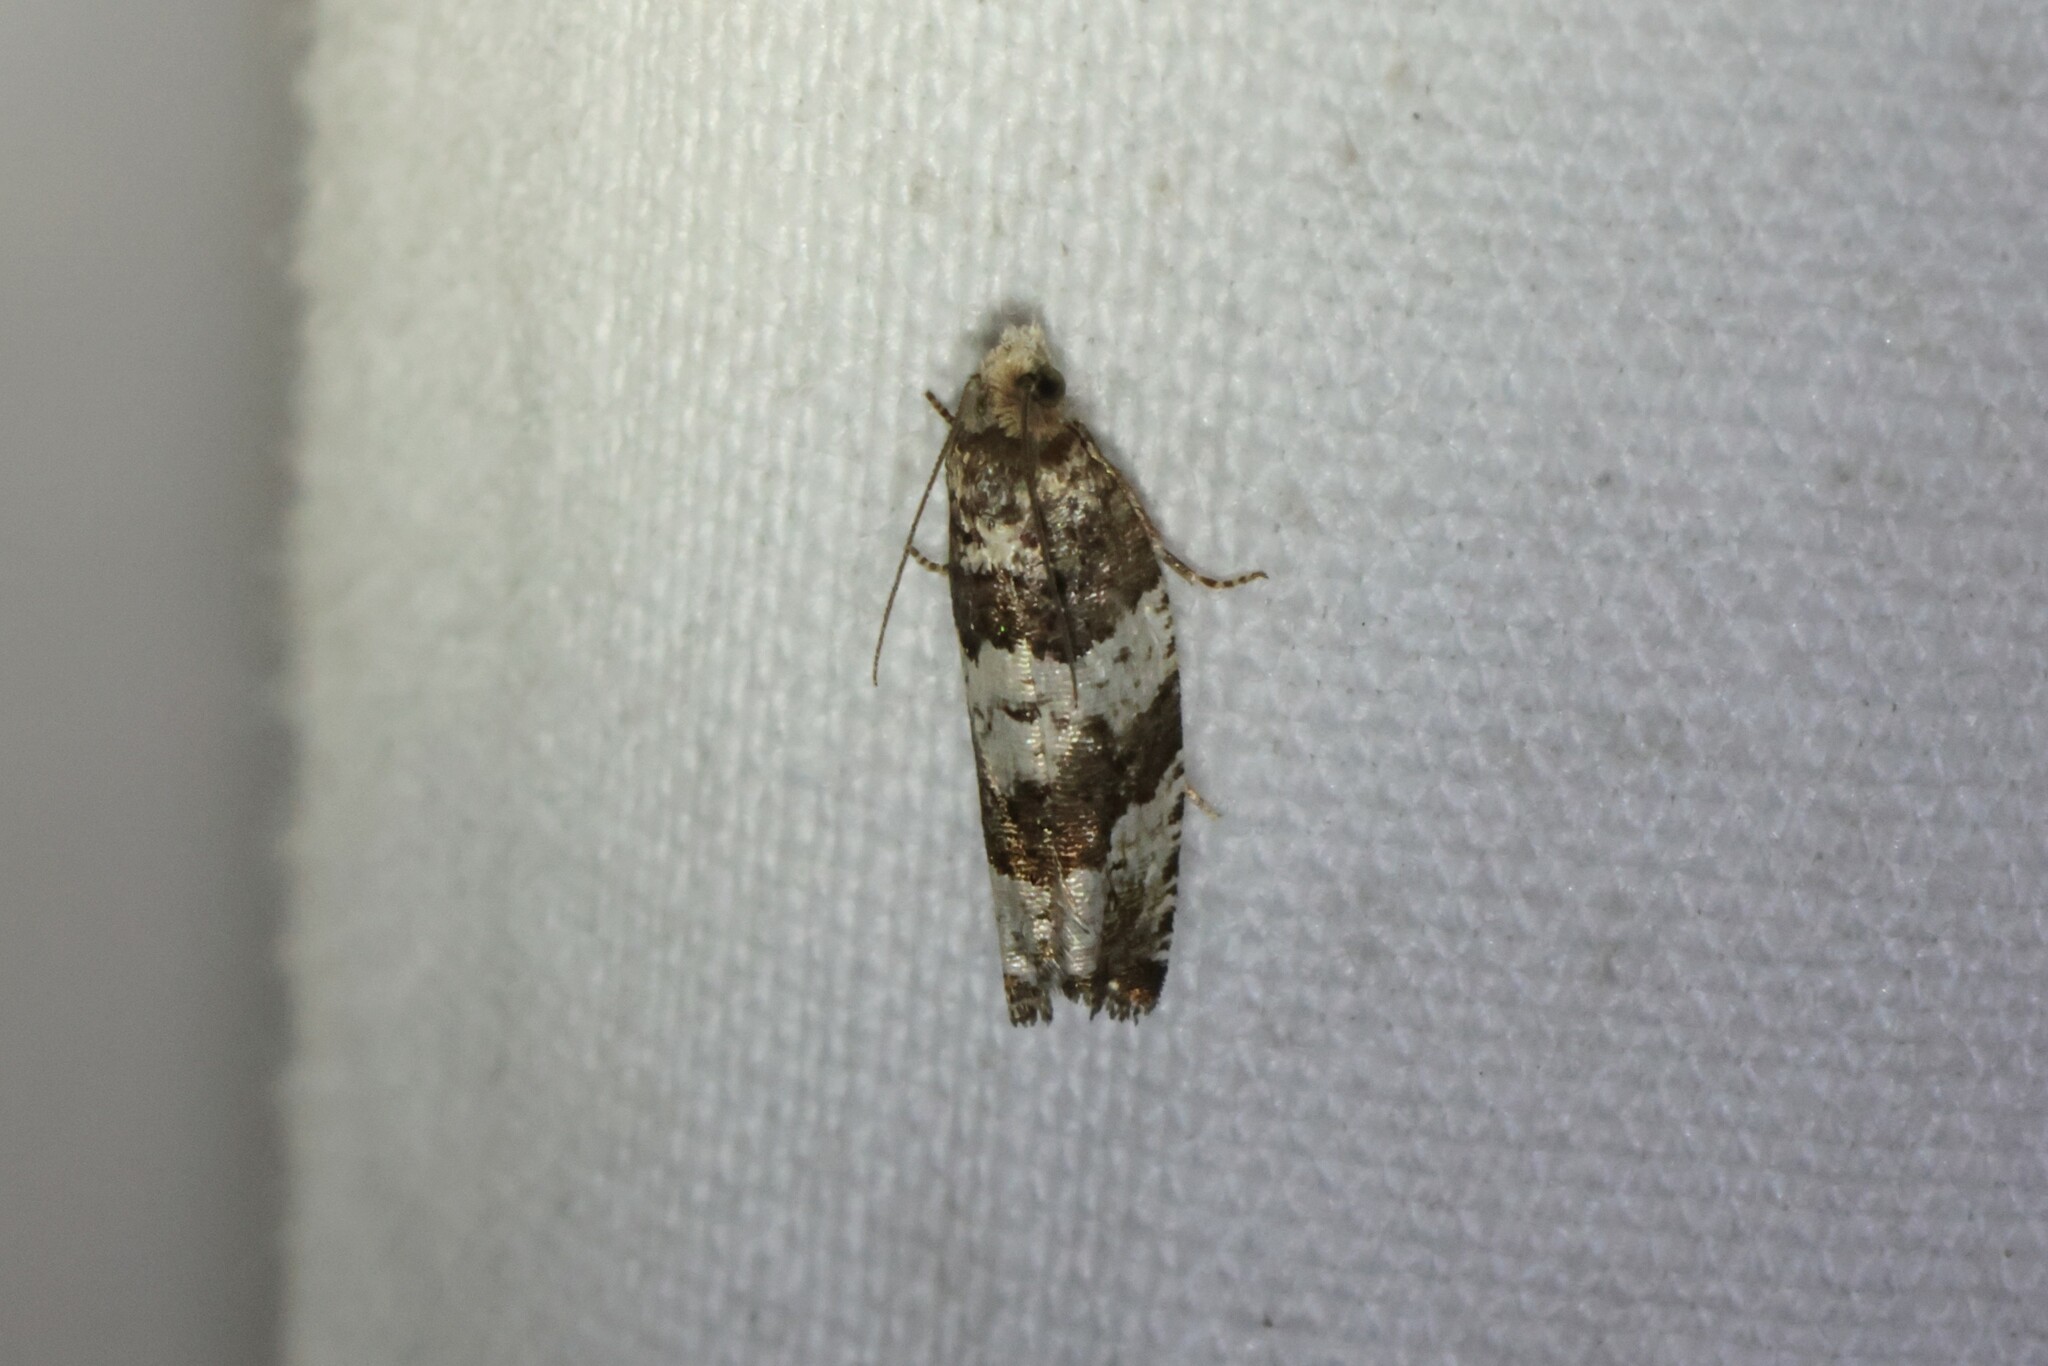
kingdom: Animalia
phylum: Arthropoda
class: Insecta
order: Lepidoptera
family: Tortricidae
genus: Celypha
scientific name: Celypha cespitana
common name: Thyme marble
